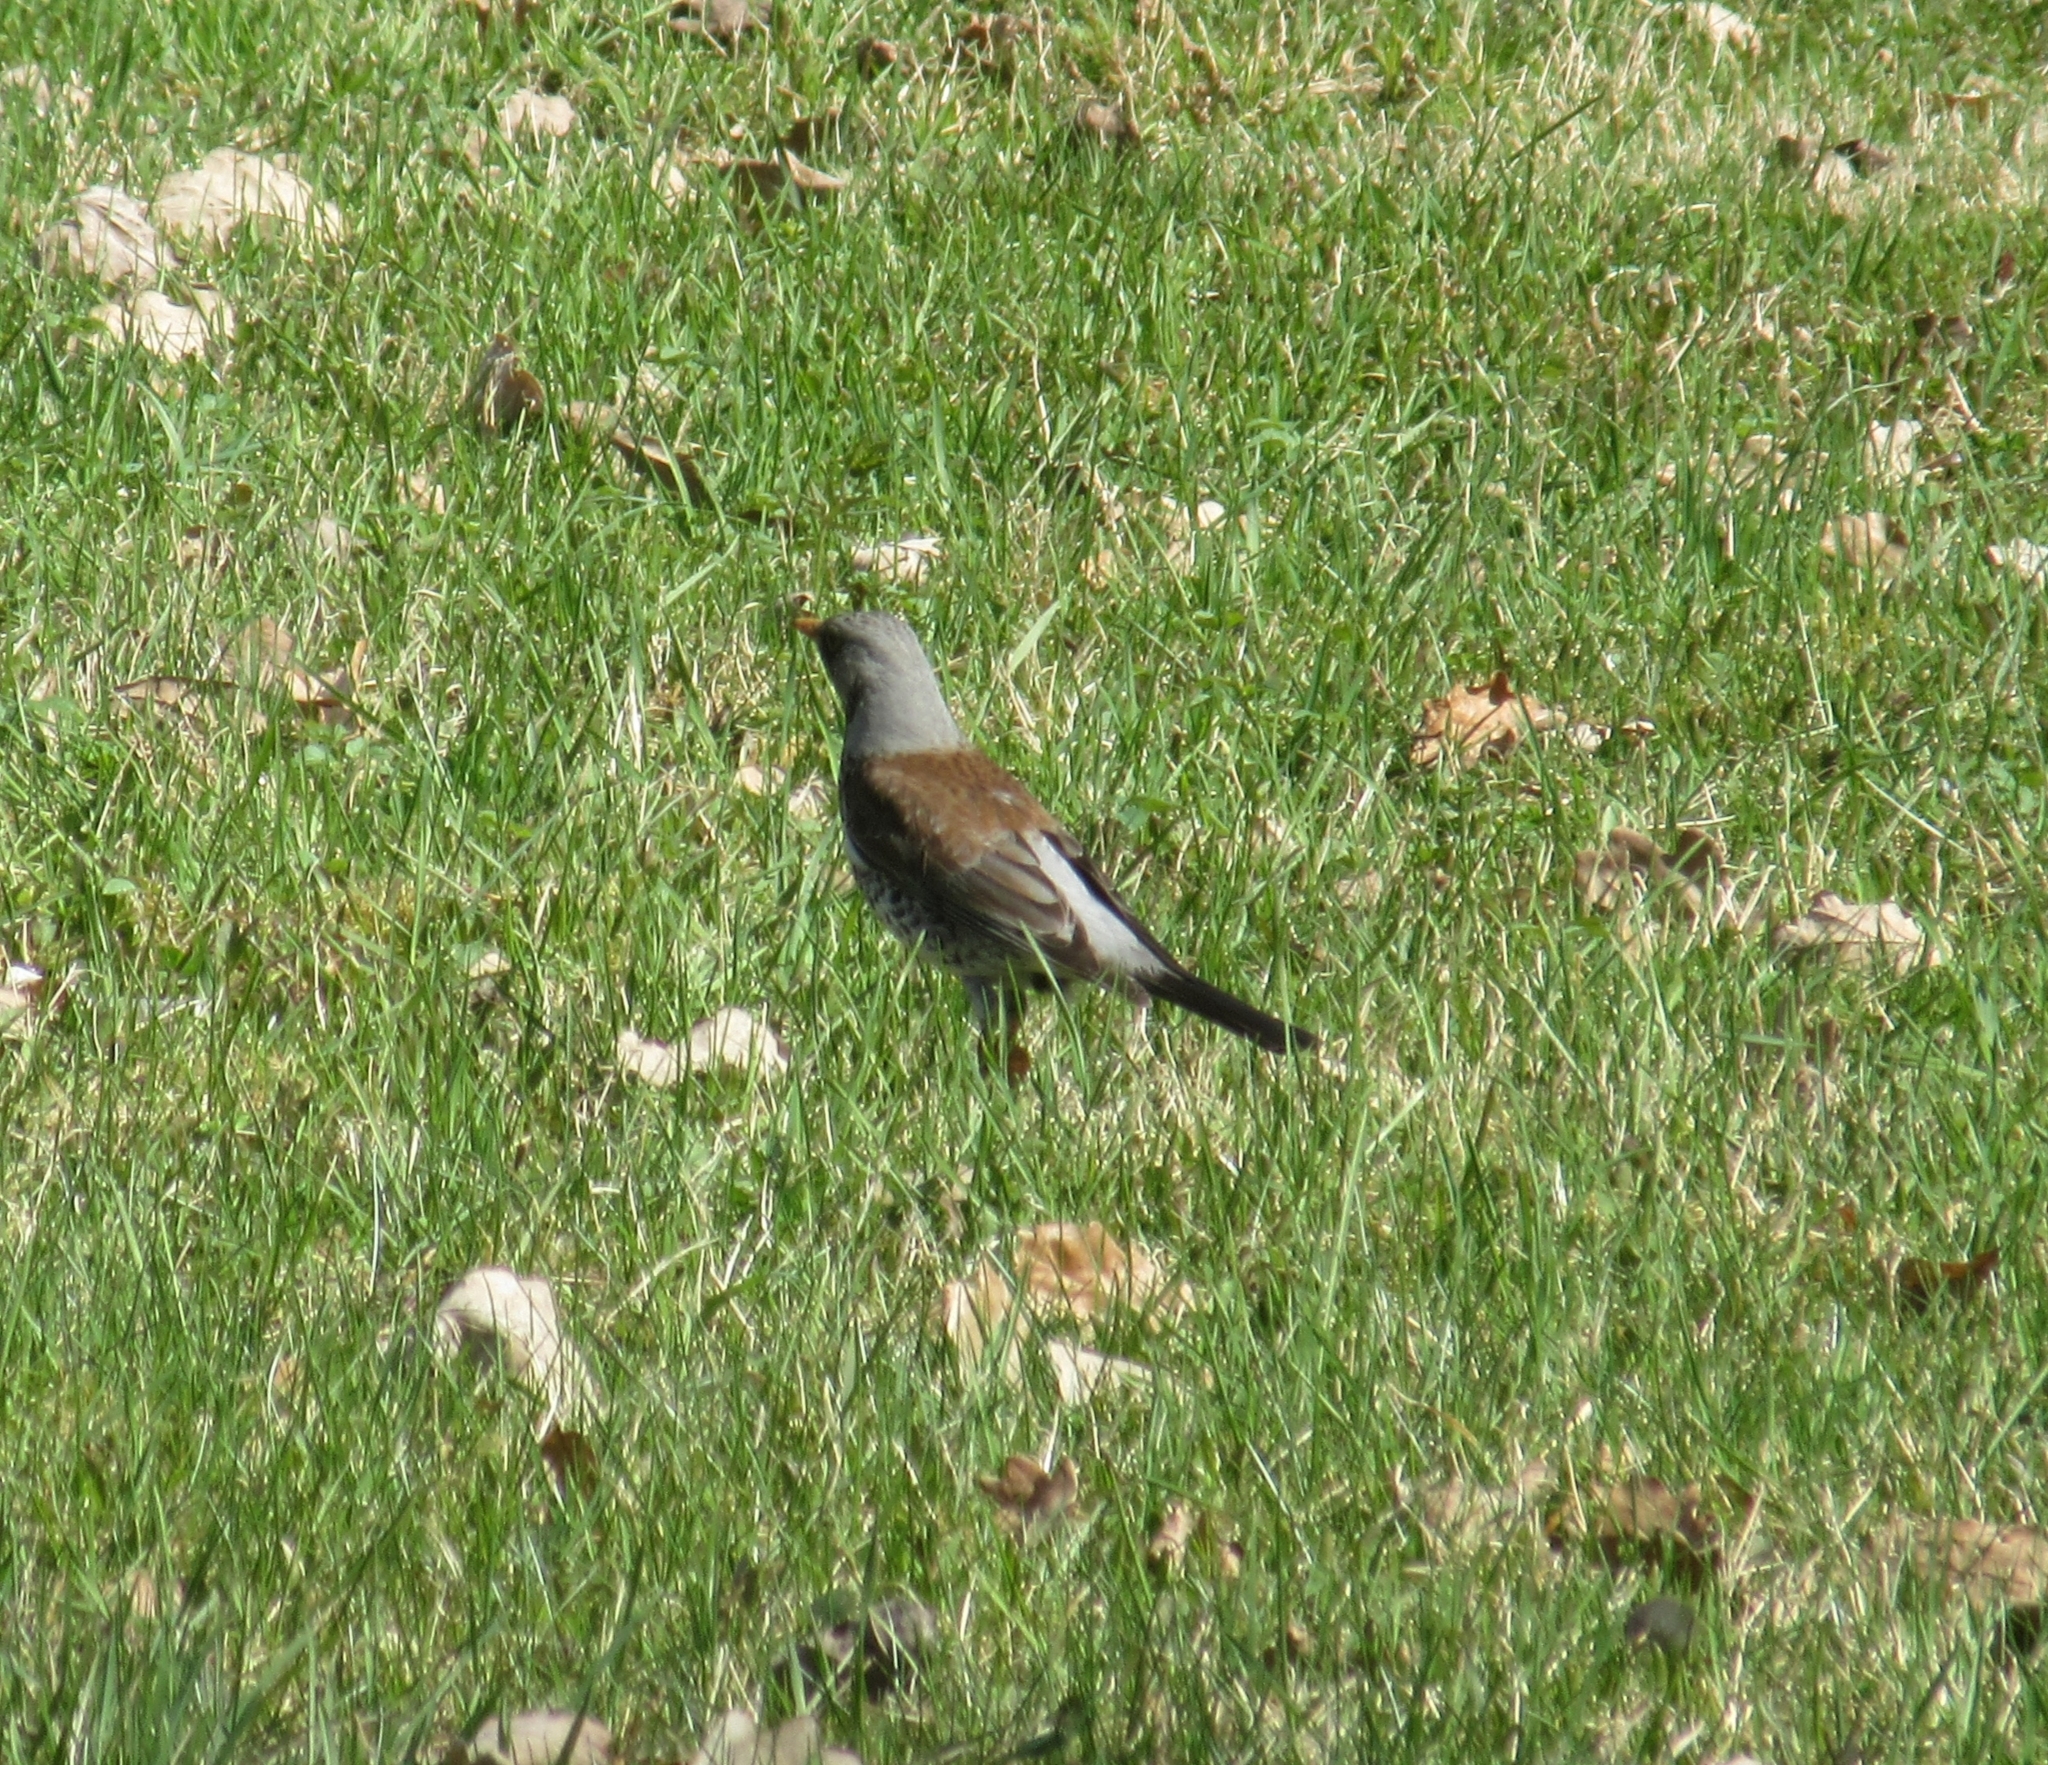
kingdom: Animalia
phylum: Chordata
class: Aves
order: Passeriformes
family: Turdidae
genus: Turdus
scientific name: Turdus pilaris
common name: Fieldfare
